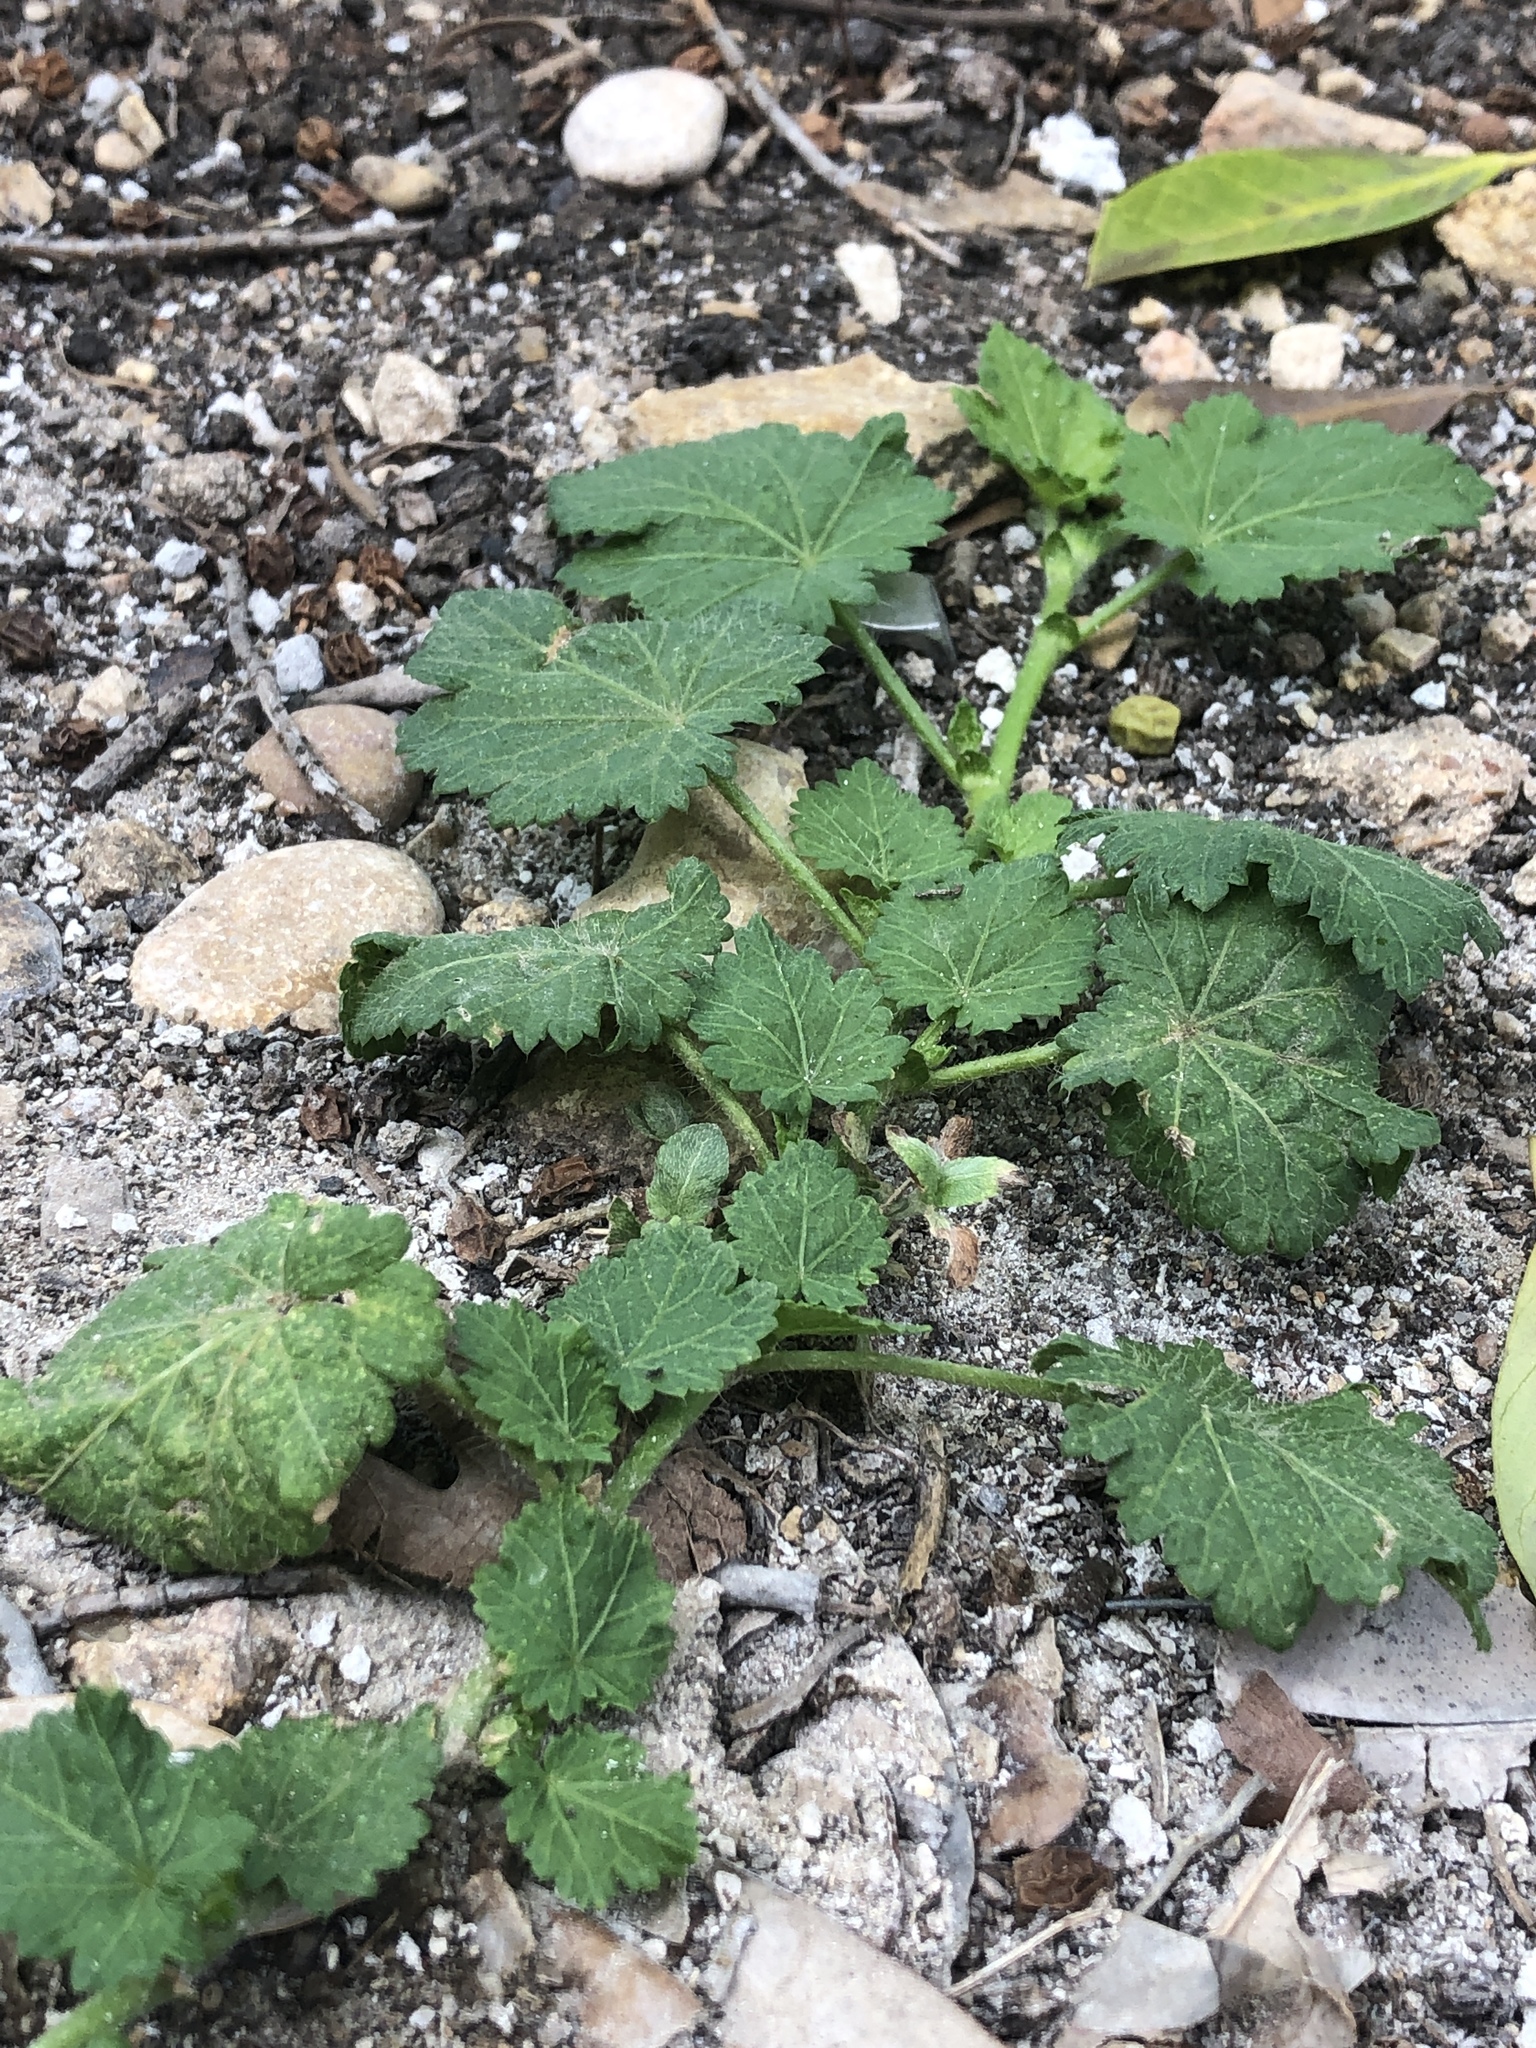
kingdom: Plantae
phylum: Tracheophyta
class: Magnoliopsida
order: Malvales
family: Malvaceae
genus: Modiola
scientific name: Modiola caroliniana
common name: Carolina bristlemallow
